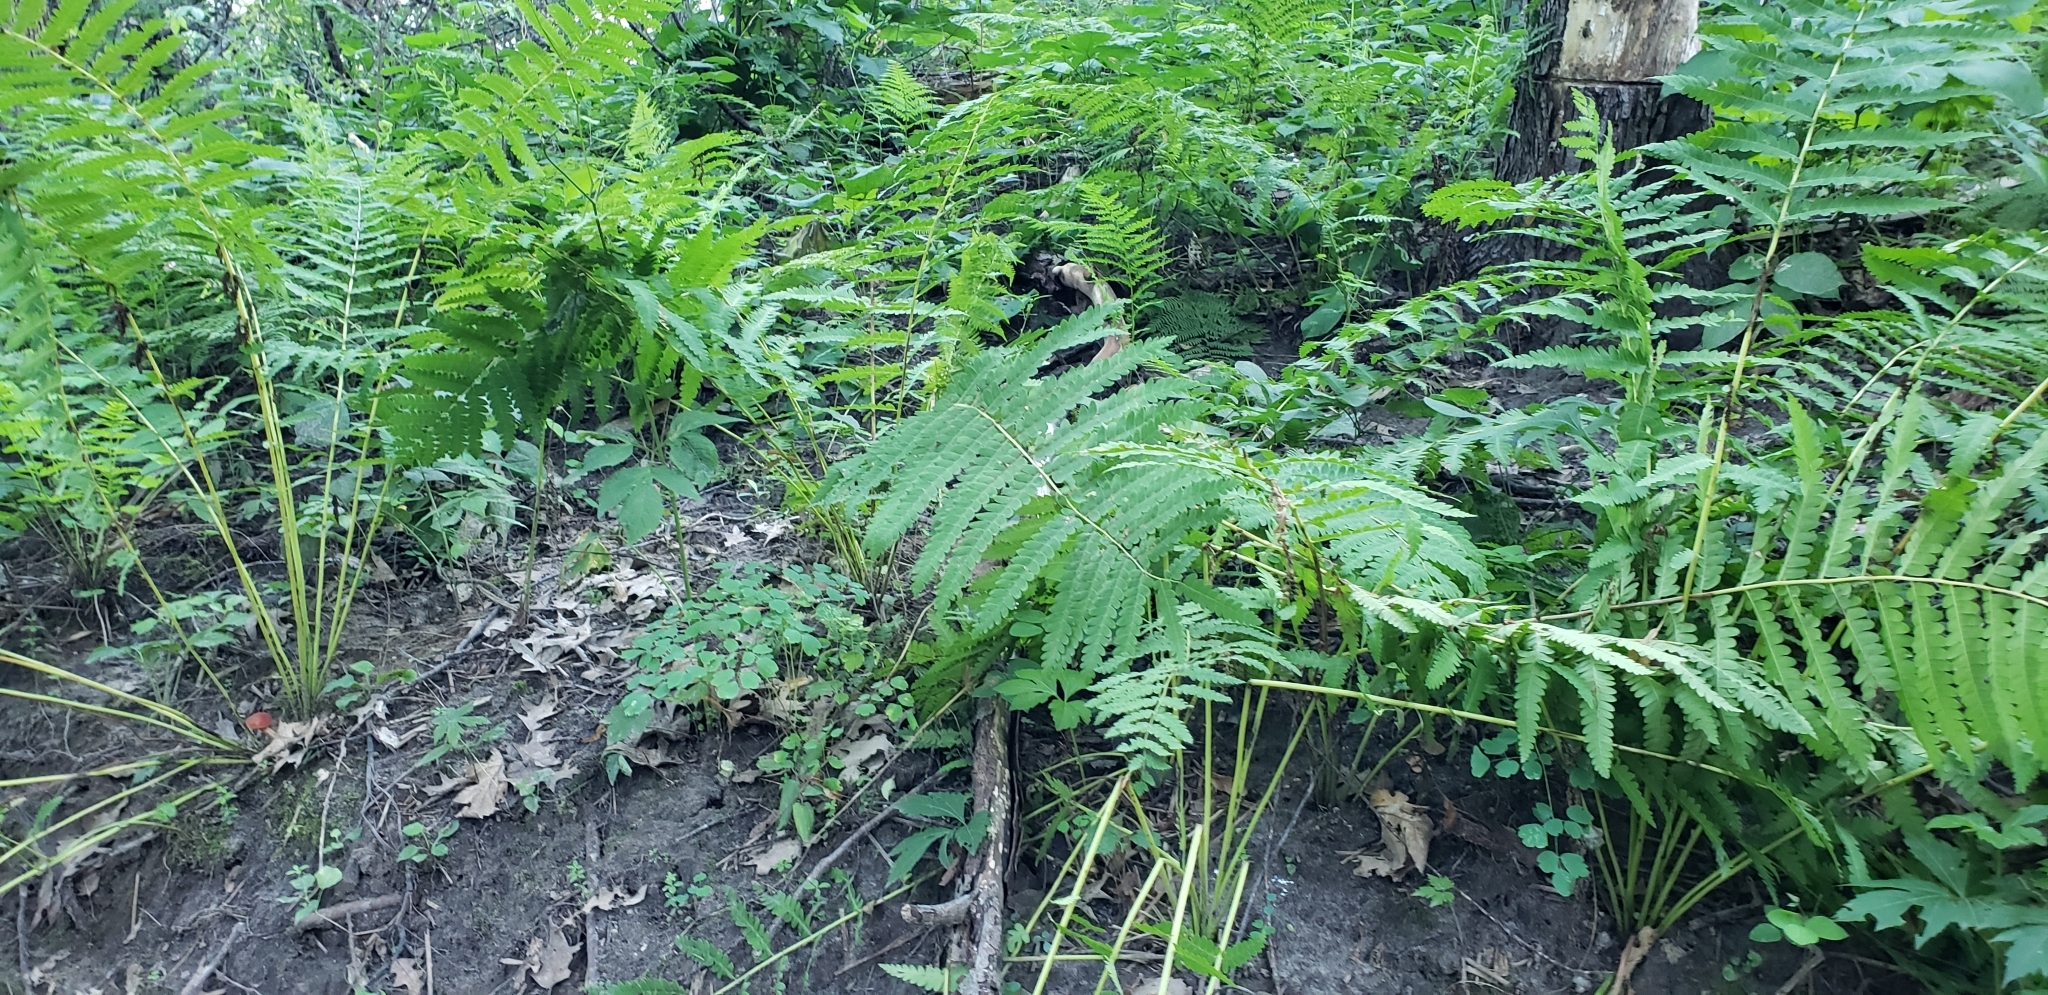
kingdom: Plantae
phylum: Tracheophyta
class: Polypodiopsida
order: Osmundales
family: Osmundaceae
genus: Claytosmunda
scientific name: Claytosmunda claytoniana
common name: Clayton's fern
